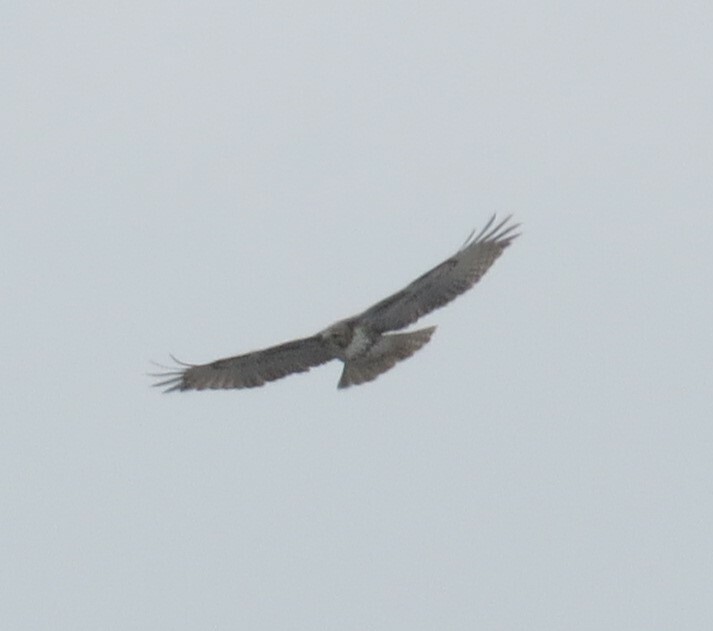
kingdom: Animalia
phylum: Chordata
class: Aves
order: Accipitriformes
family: Accipitridae
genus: Buteo
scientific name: Buteo jamaicensis
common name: Red-tailed hawk
